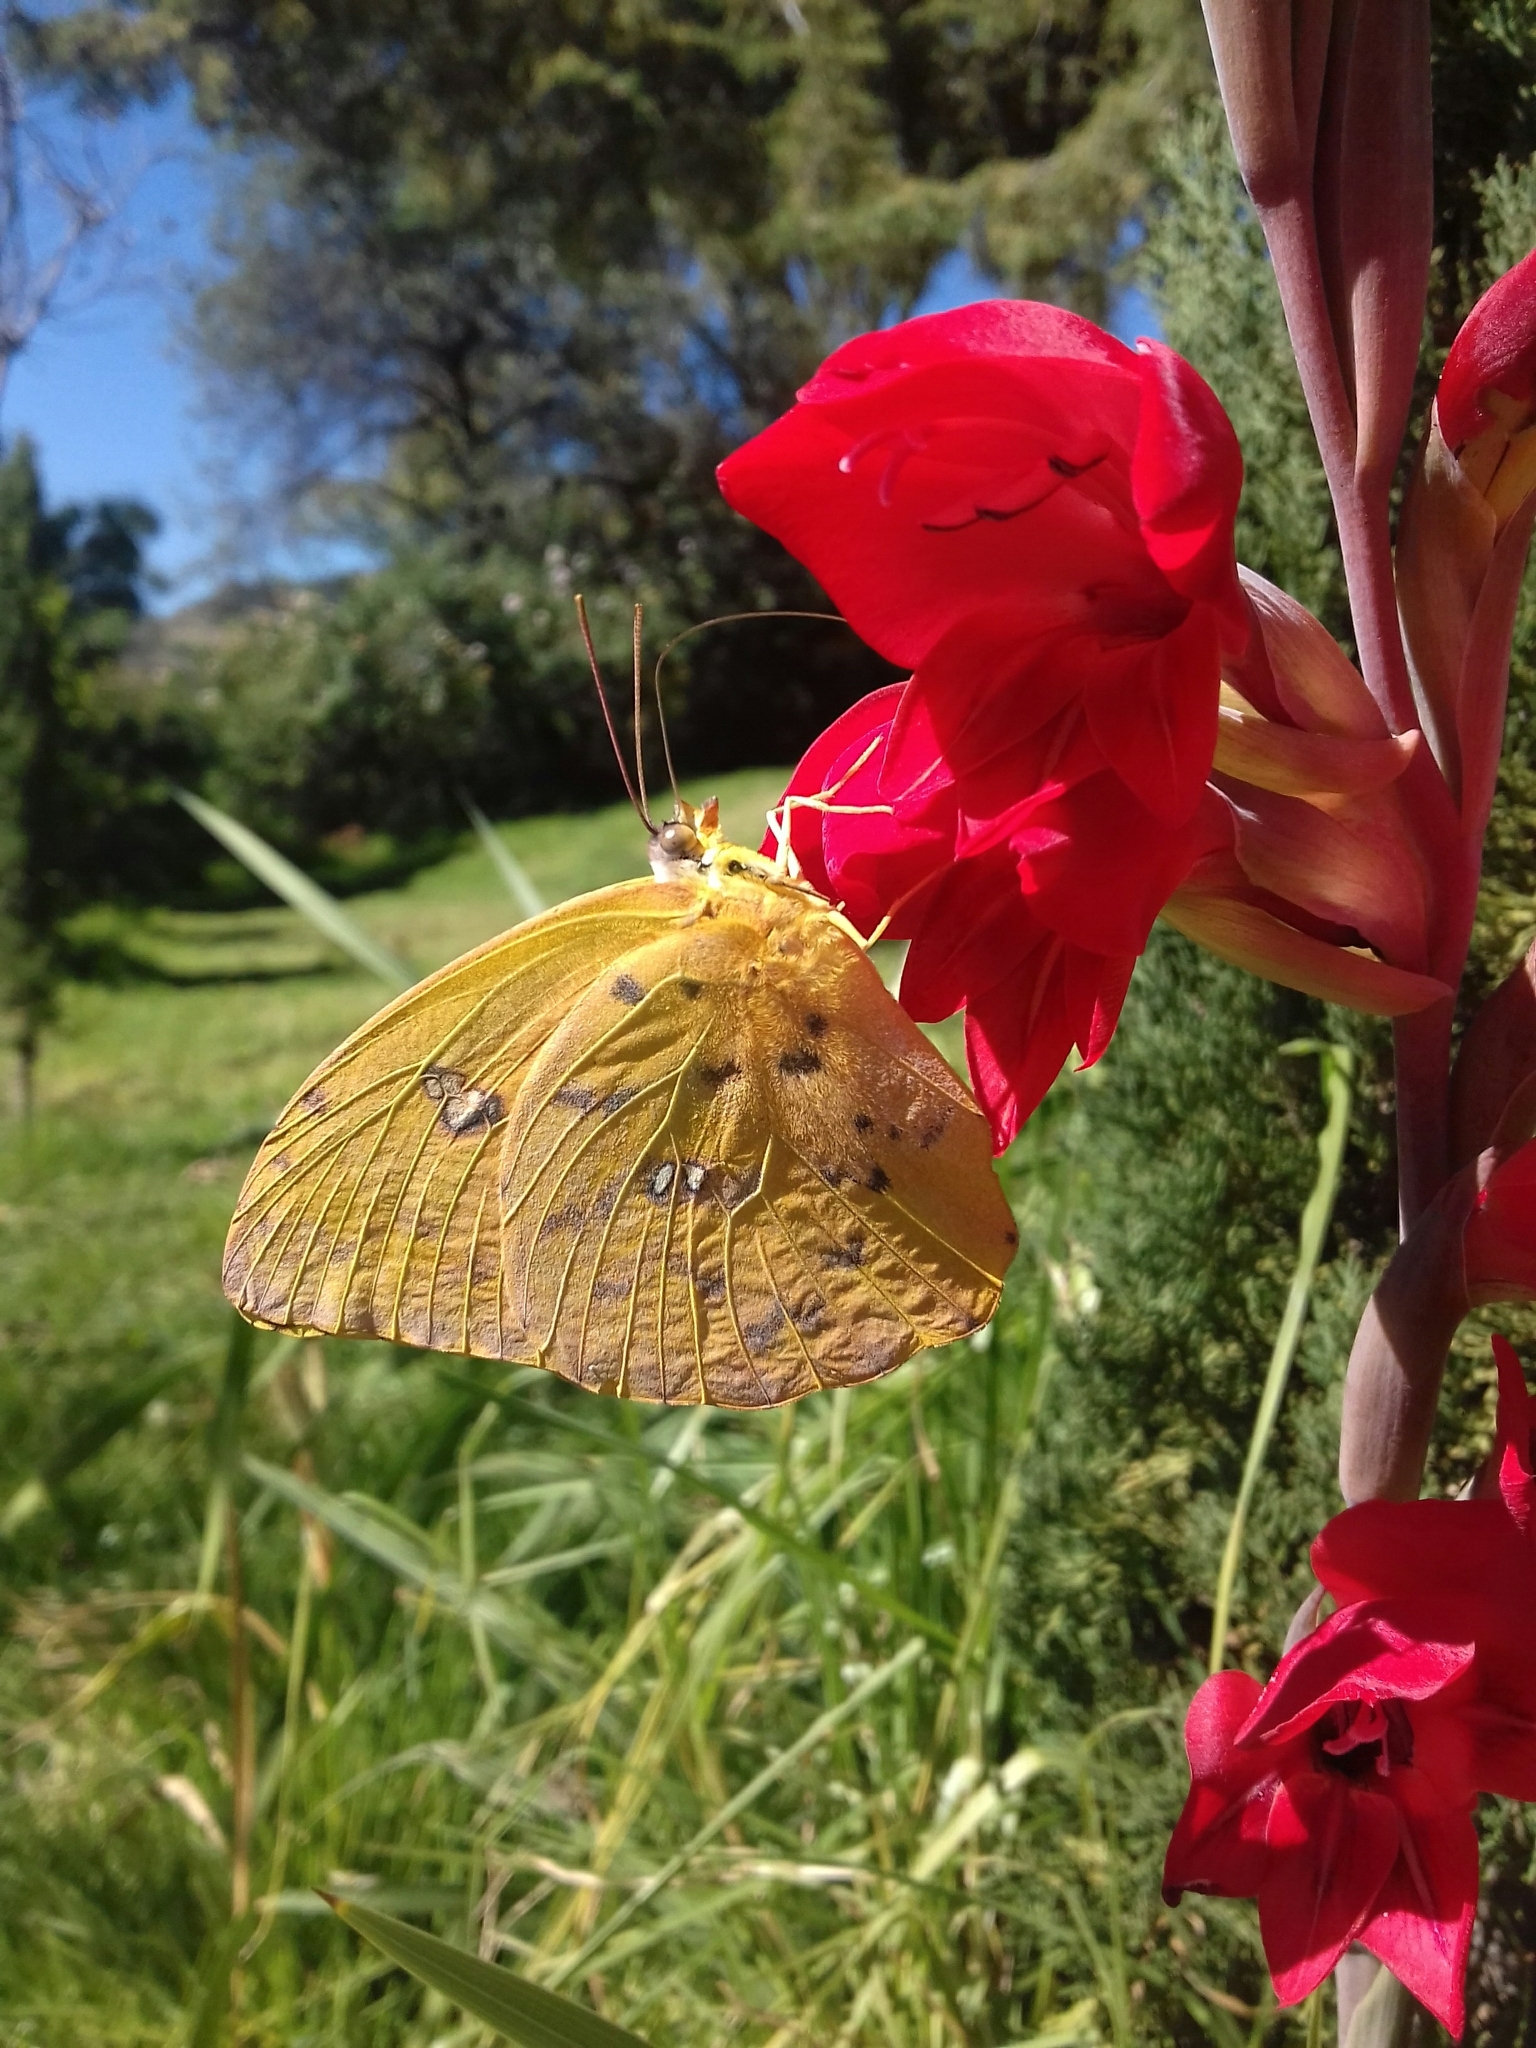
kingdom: Animalia
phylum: Arthropoda
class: Insecta
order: Lepidoptera
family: Pieridae
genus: Phoebis
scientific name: Phoebis philea
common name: Orange-barred giant sulphur
